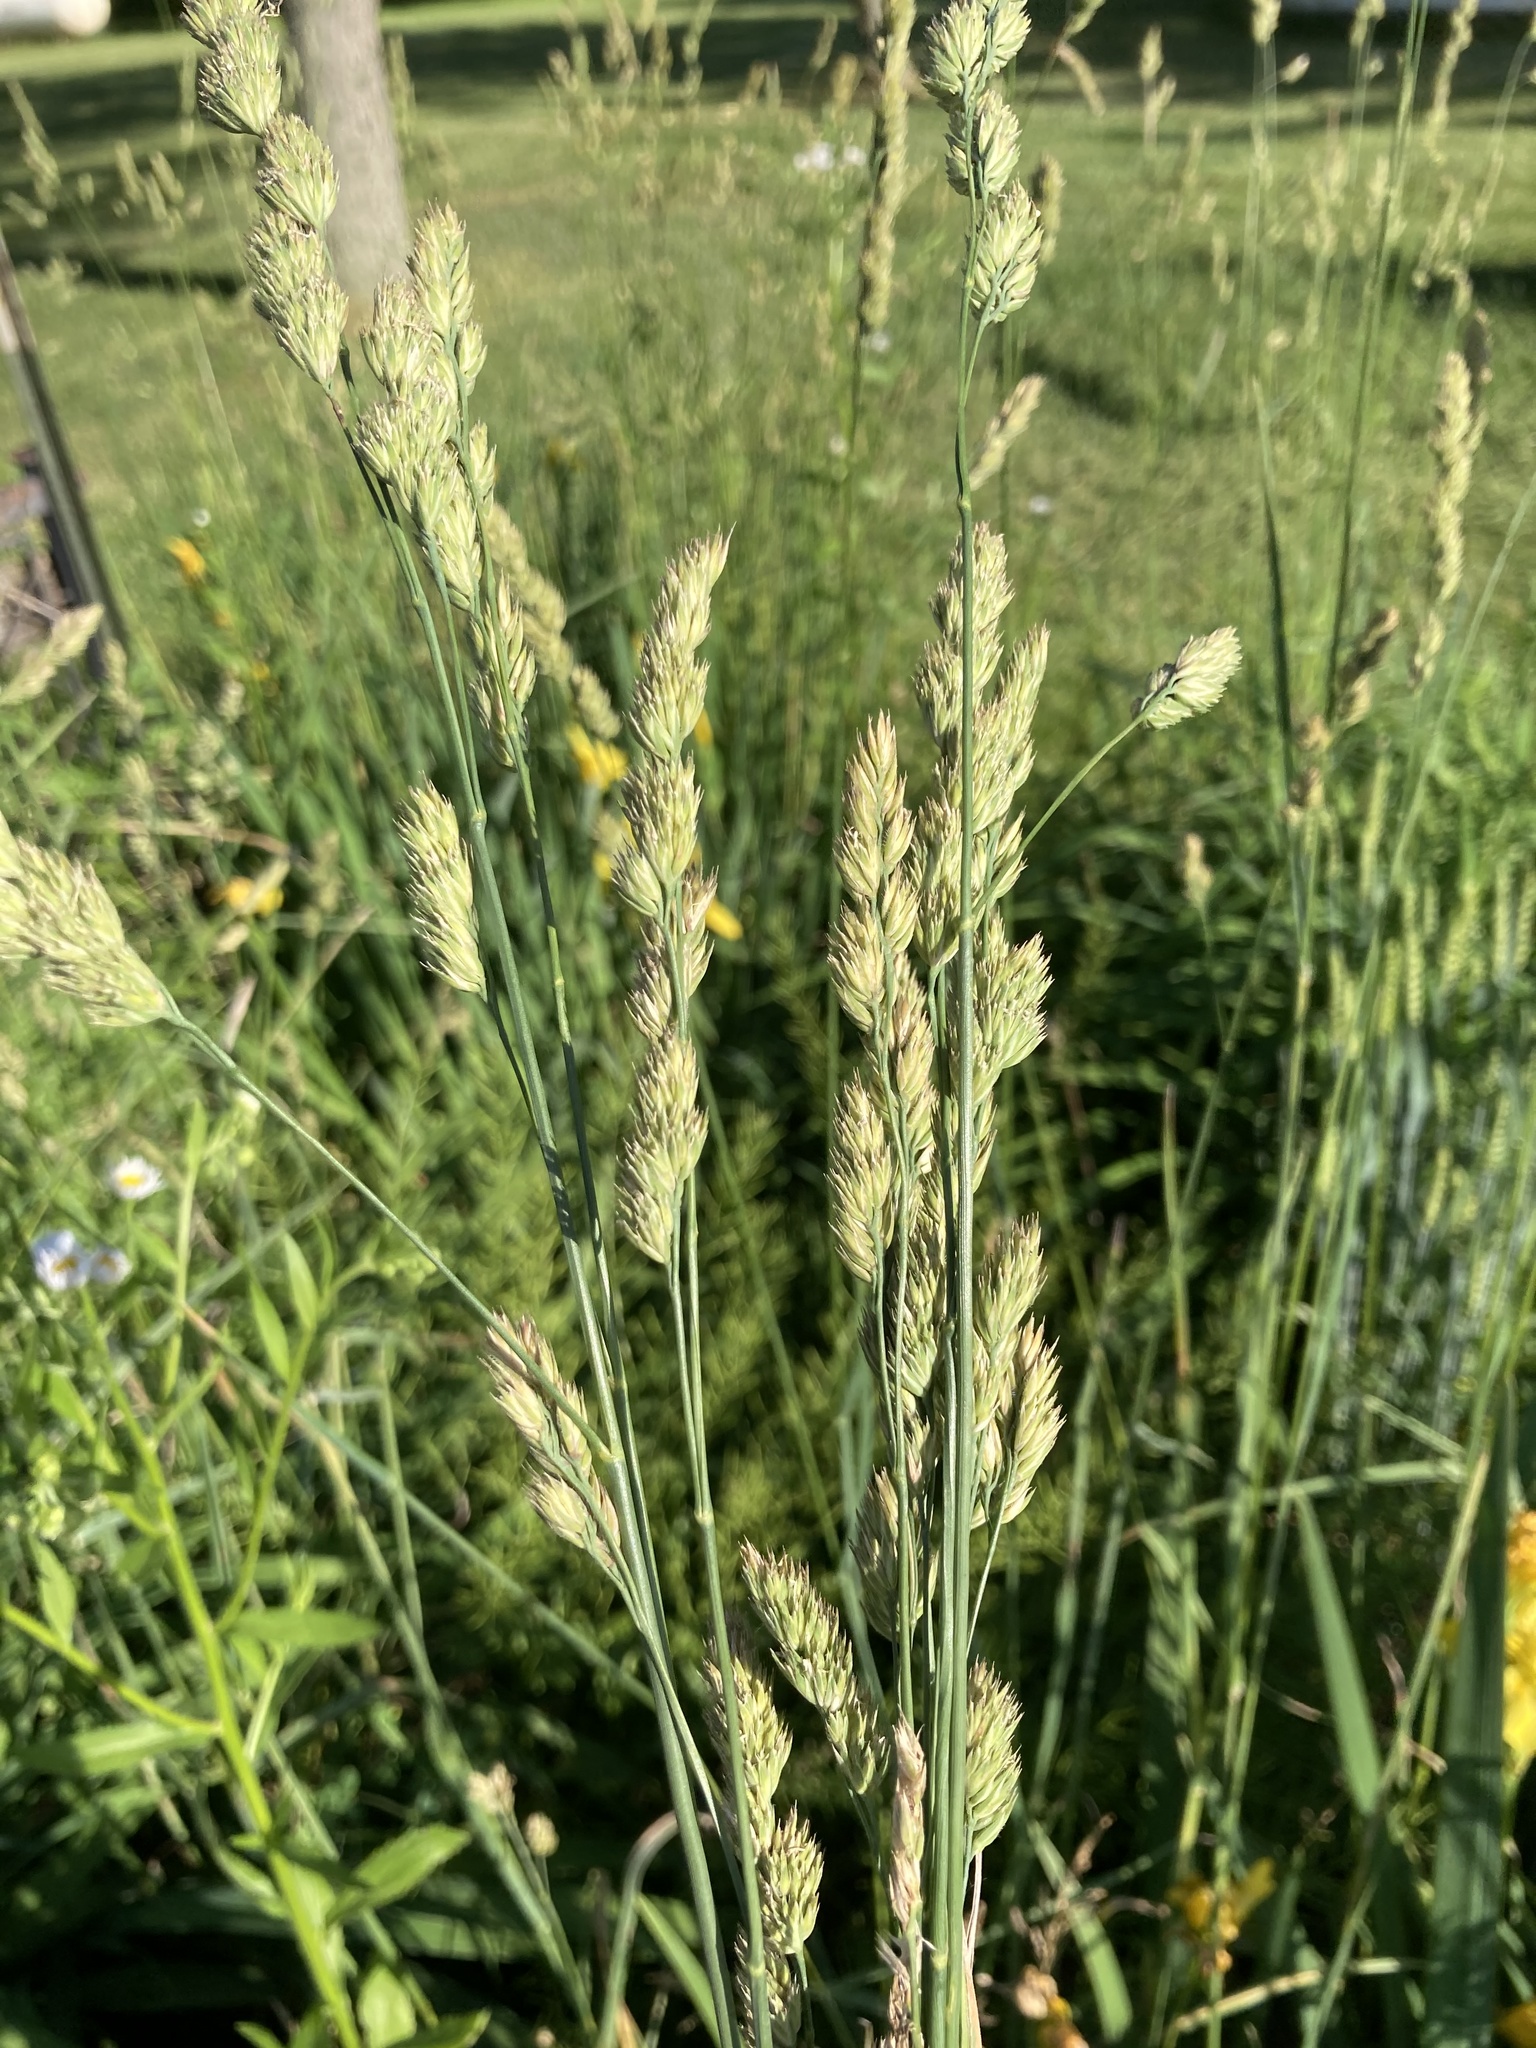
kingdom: Plantae
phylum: Tracheophyta
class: Liliopsida
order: Poales
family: Poaceae
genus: Dactylis
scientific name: Dactylis glomerata
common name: Orchardgrass
